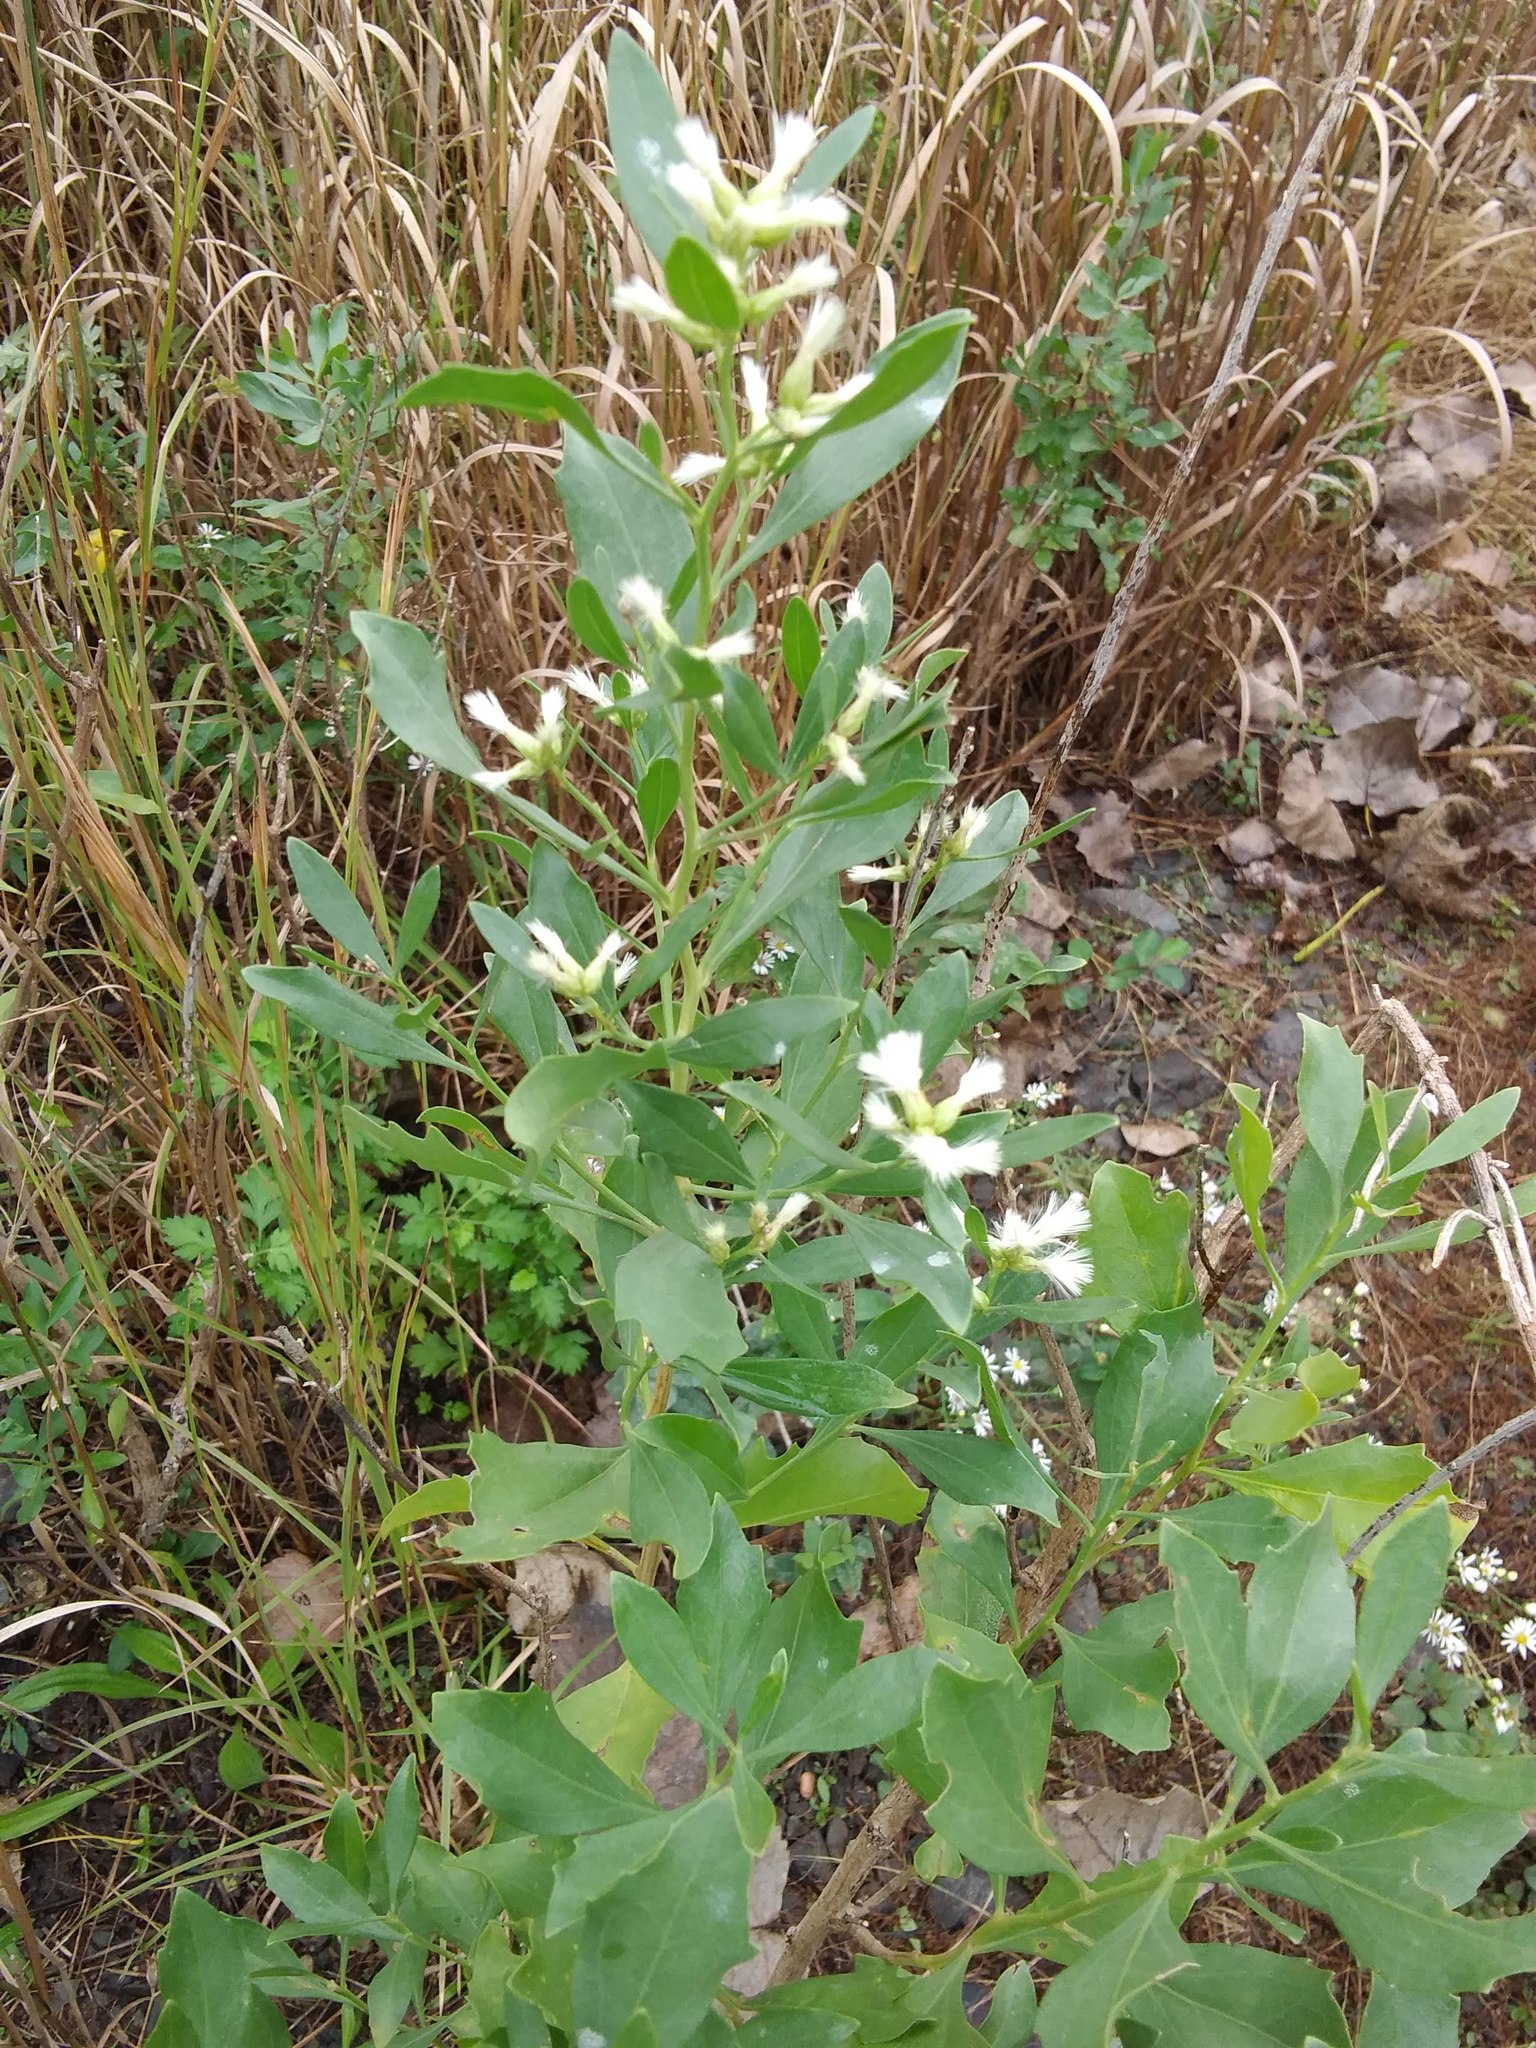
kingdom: Plantae
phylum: Tracheophyta
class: Magnoliopsida
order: Asterales
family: Asteraceae
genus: Baccharis
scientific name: Baccharis halimifolia
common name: Eastern baccharis
